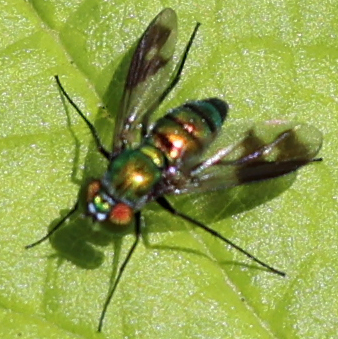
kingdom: Animalia
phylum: Arthropoda
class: Insecta
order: Diptera
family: Dolichopodidae
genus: Condylostylus
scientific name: Condylostylus patibulatus
